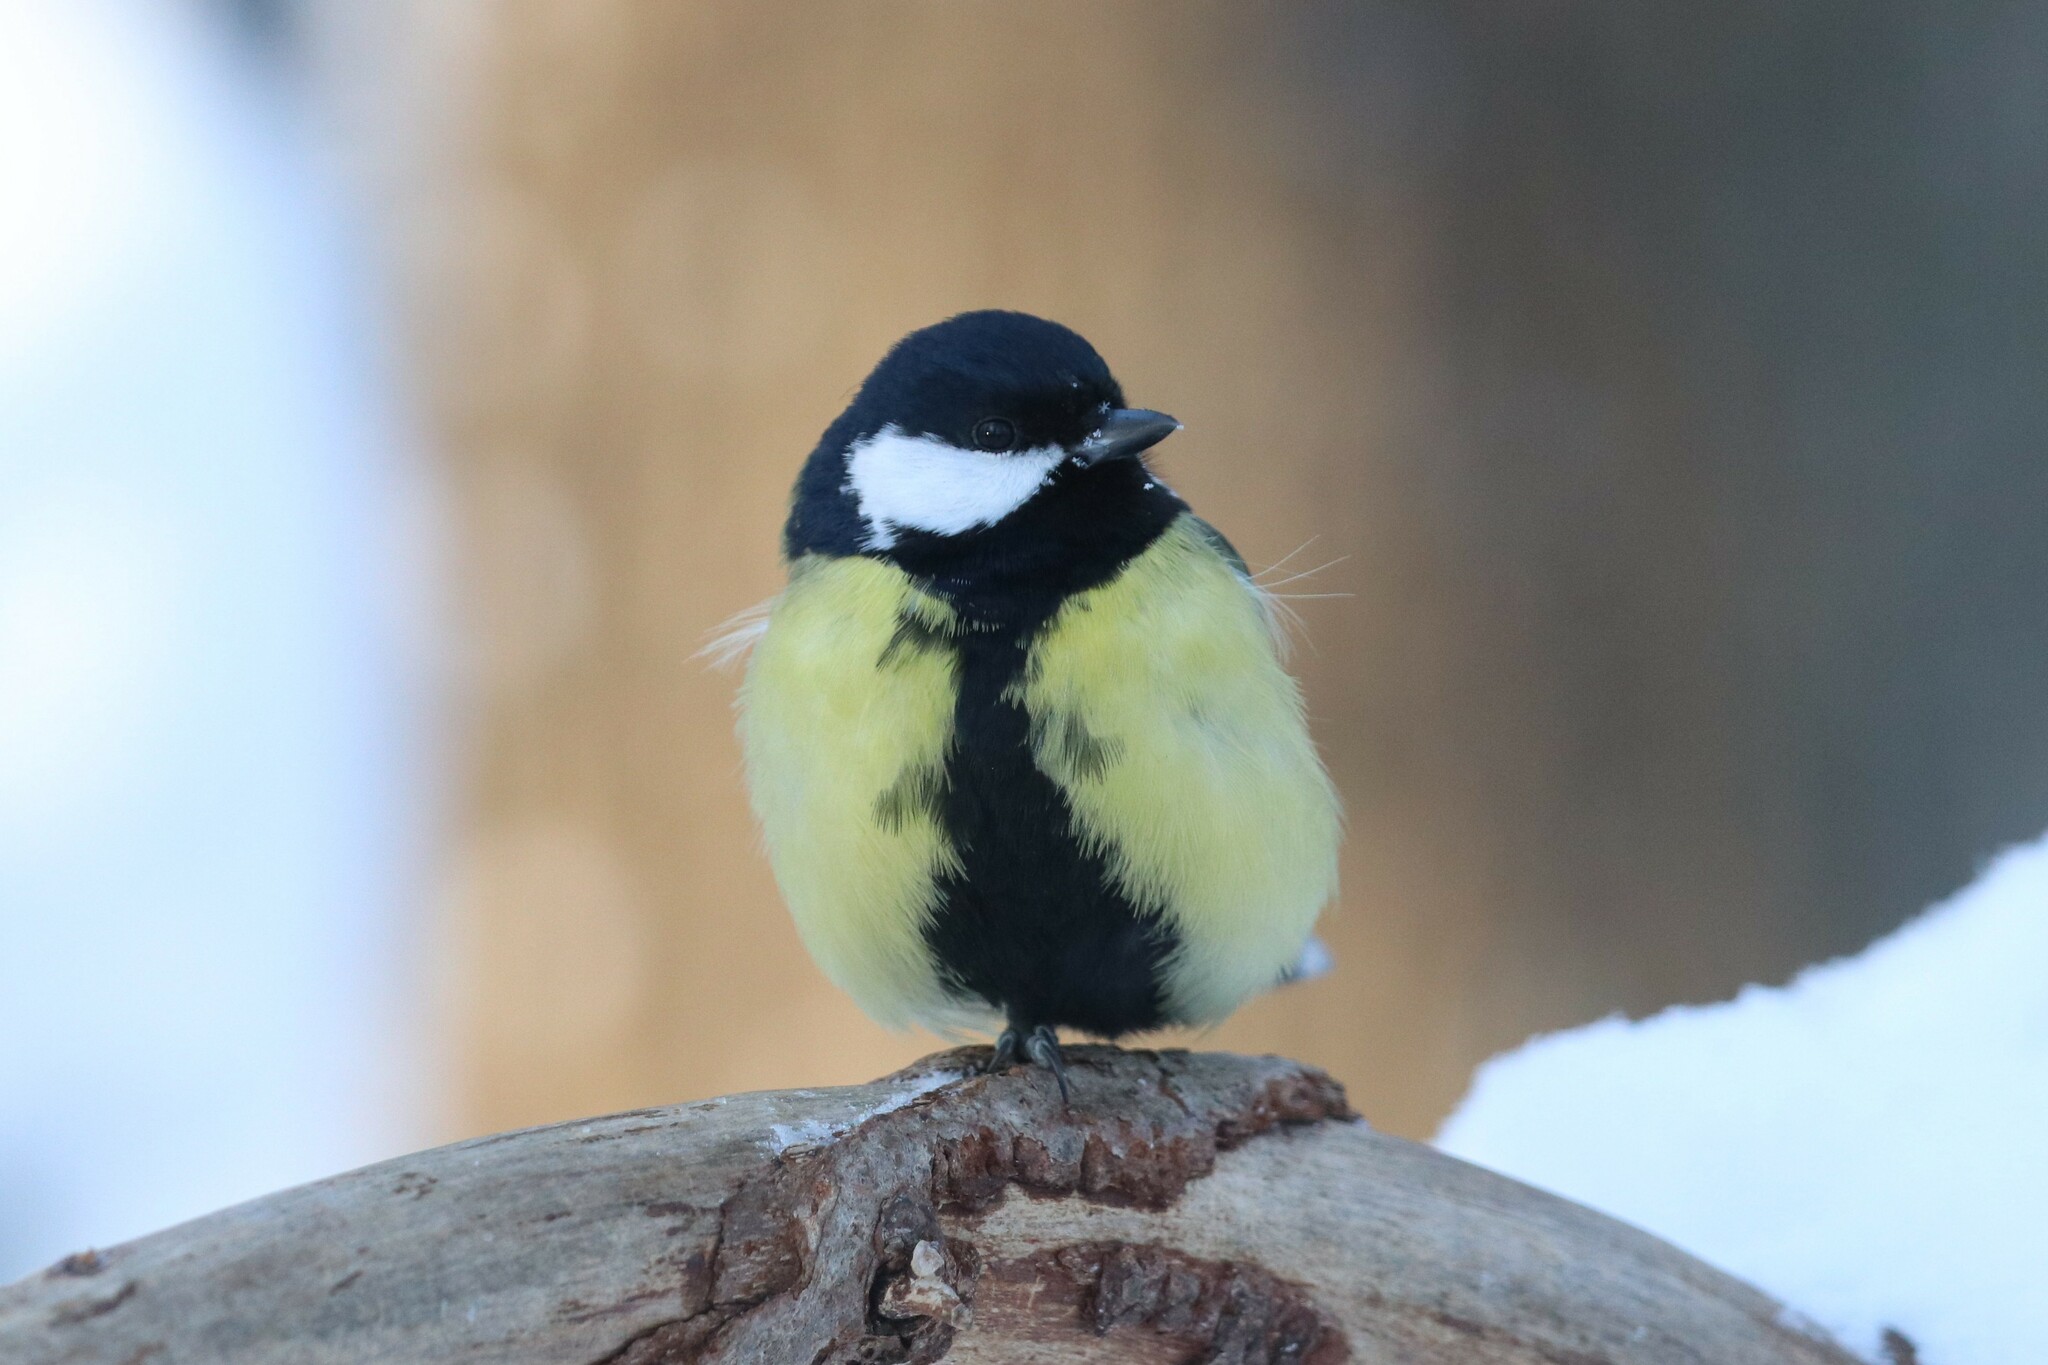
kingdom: Animalia
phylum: Chordata
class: Aves
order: Passeriformes
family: Paridae
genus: Parus
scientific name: Parus major
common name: Great tit
